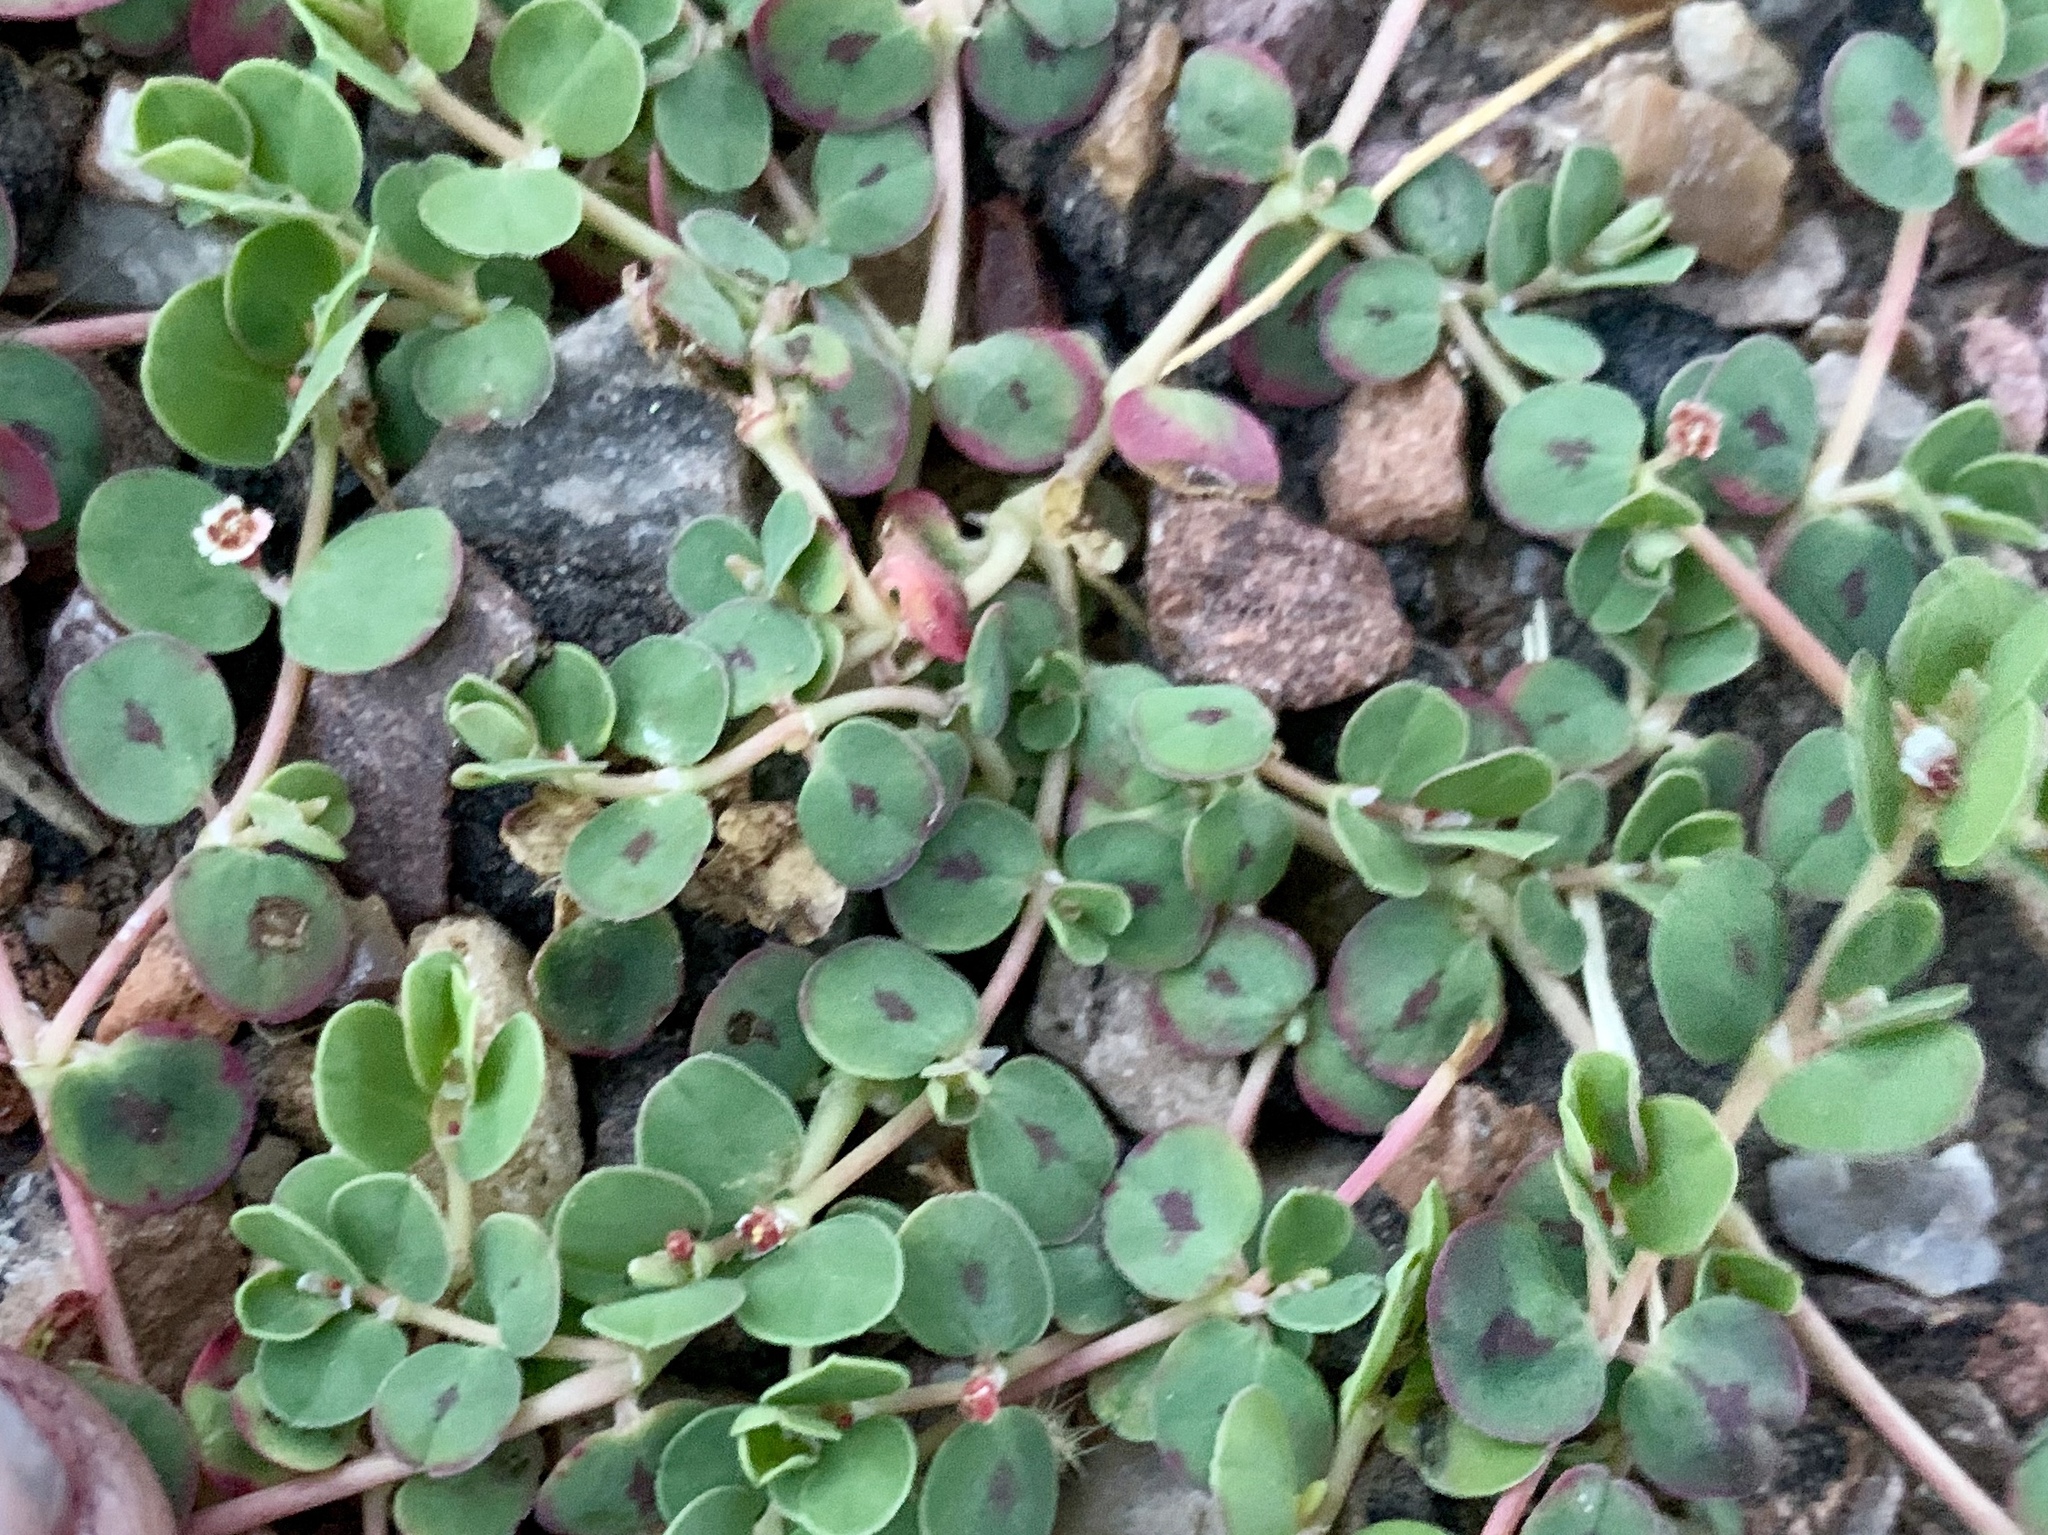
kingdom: Plantae
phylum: Tracheophyta
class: Magnoliopsida
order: Malpighiales
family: Euphorbiaceae
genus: Euphorbia
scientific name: Euphorbia albomarginata
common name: Whitemargin sandmat
